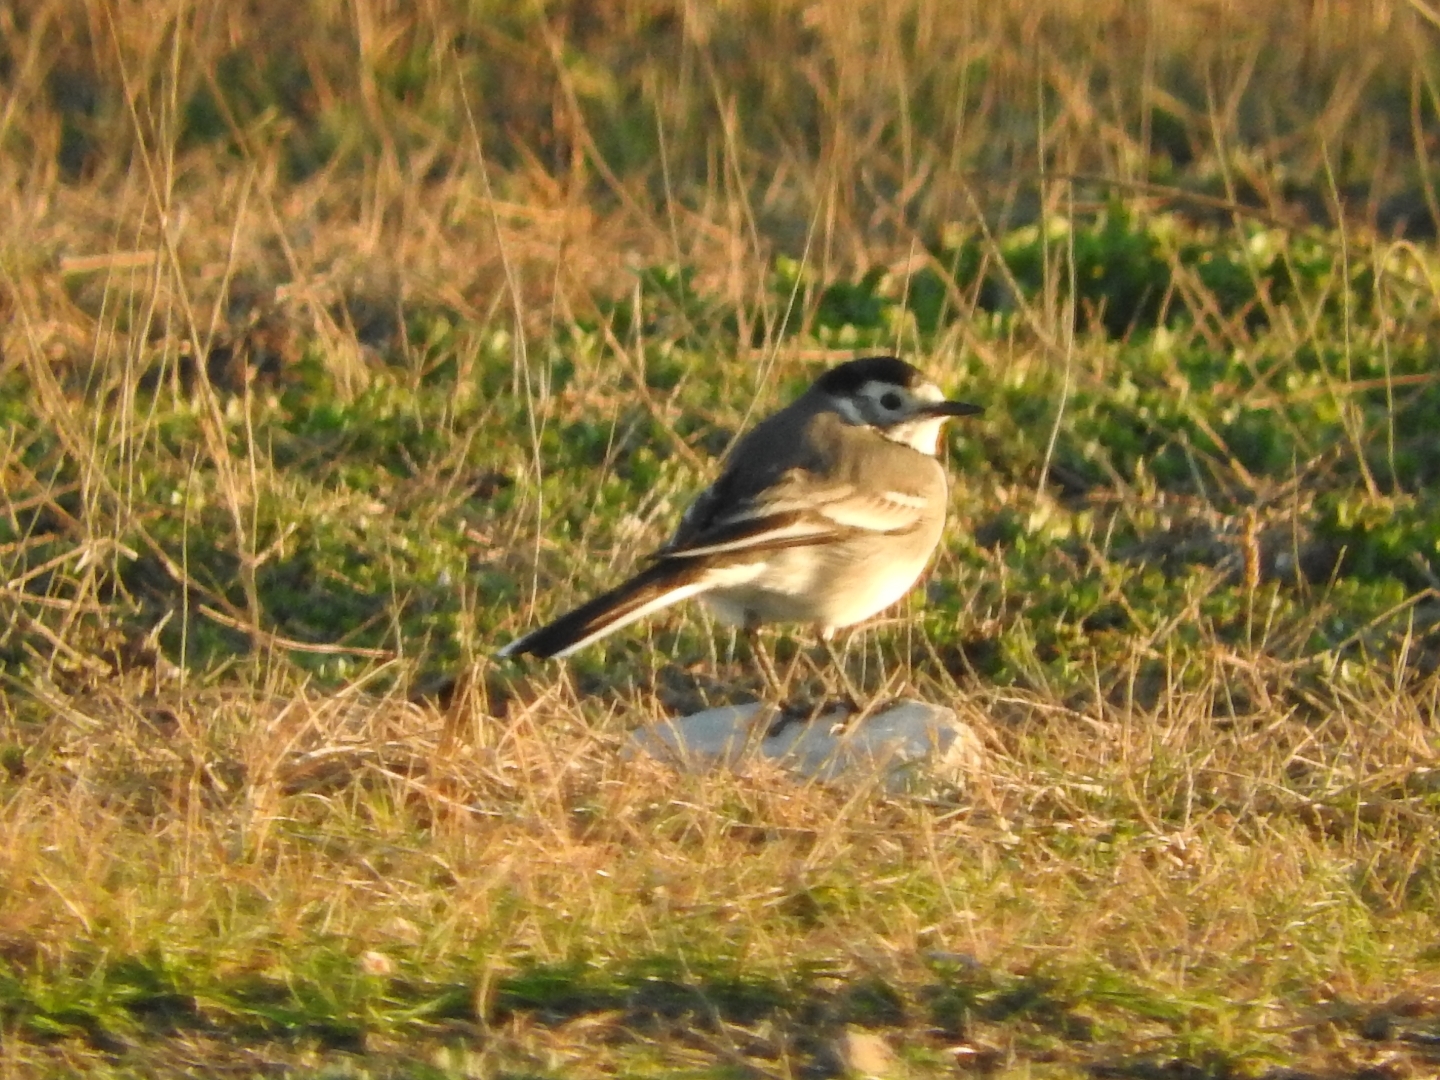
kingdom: Animalia
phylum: Chordata
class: Aves
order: Passeriformes
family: Motacillidae
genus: Motacilla
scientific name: Motacilla alba
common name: White wagtail
